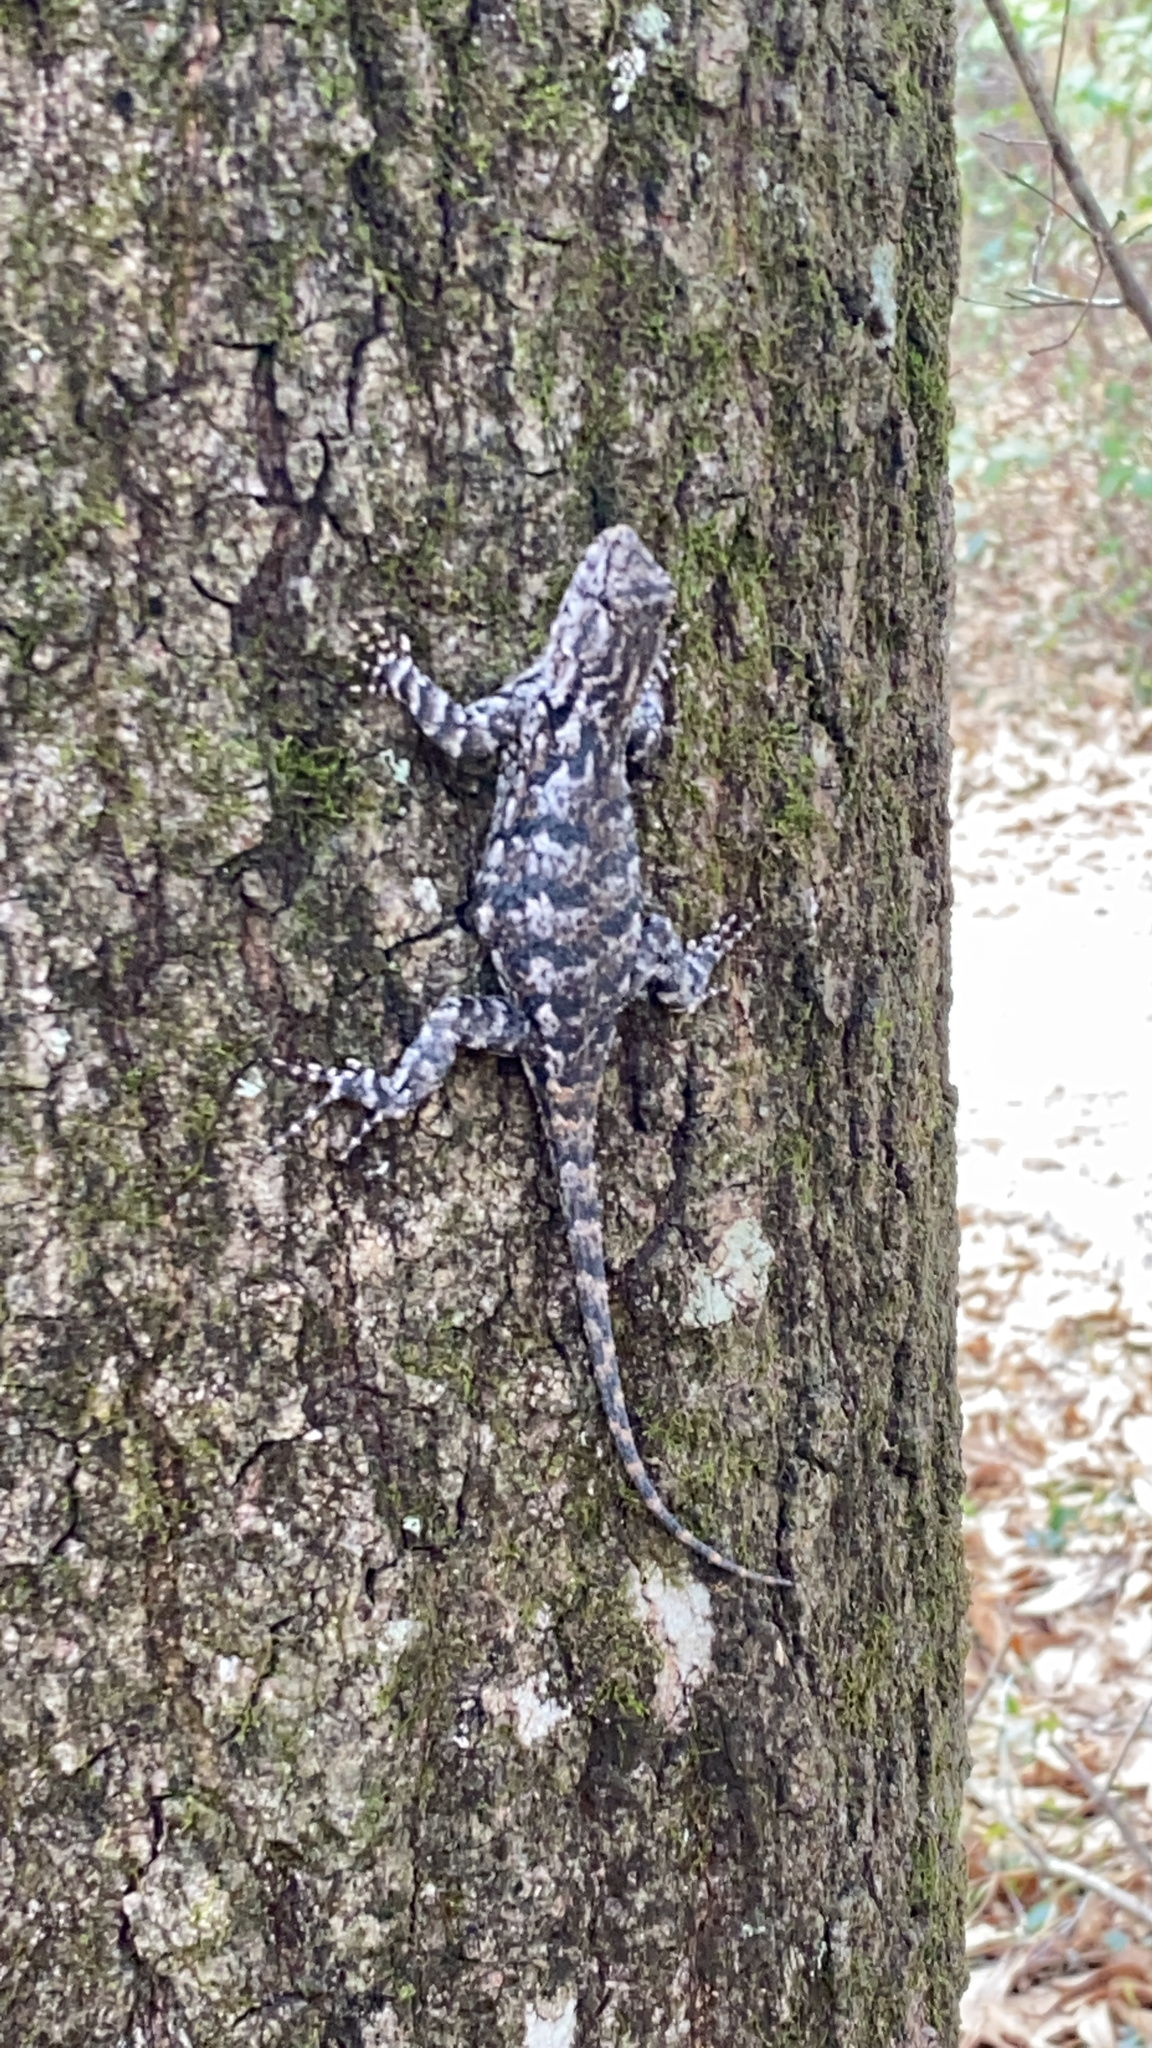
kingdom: Animalia
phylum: Chordata
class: Squamata
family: Phrynosomatidae
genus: Sceloporus
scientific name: Sceloporus undulatus
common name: Eastern fence lizard
